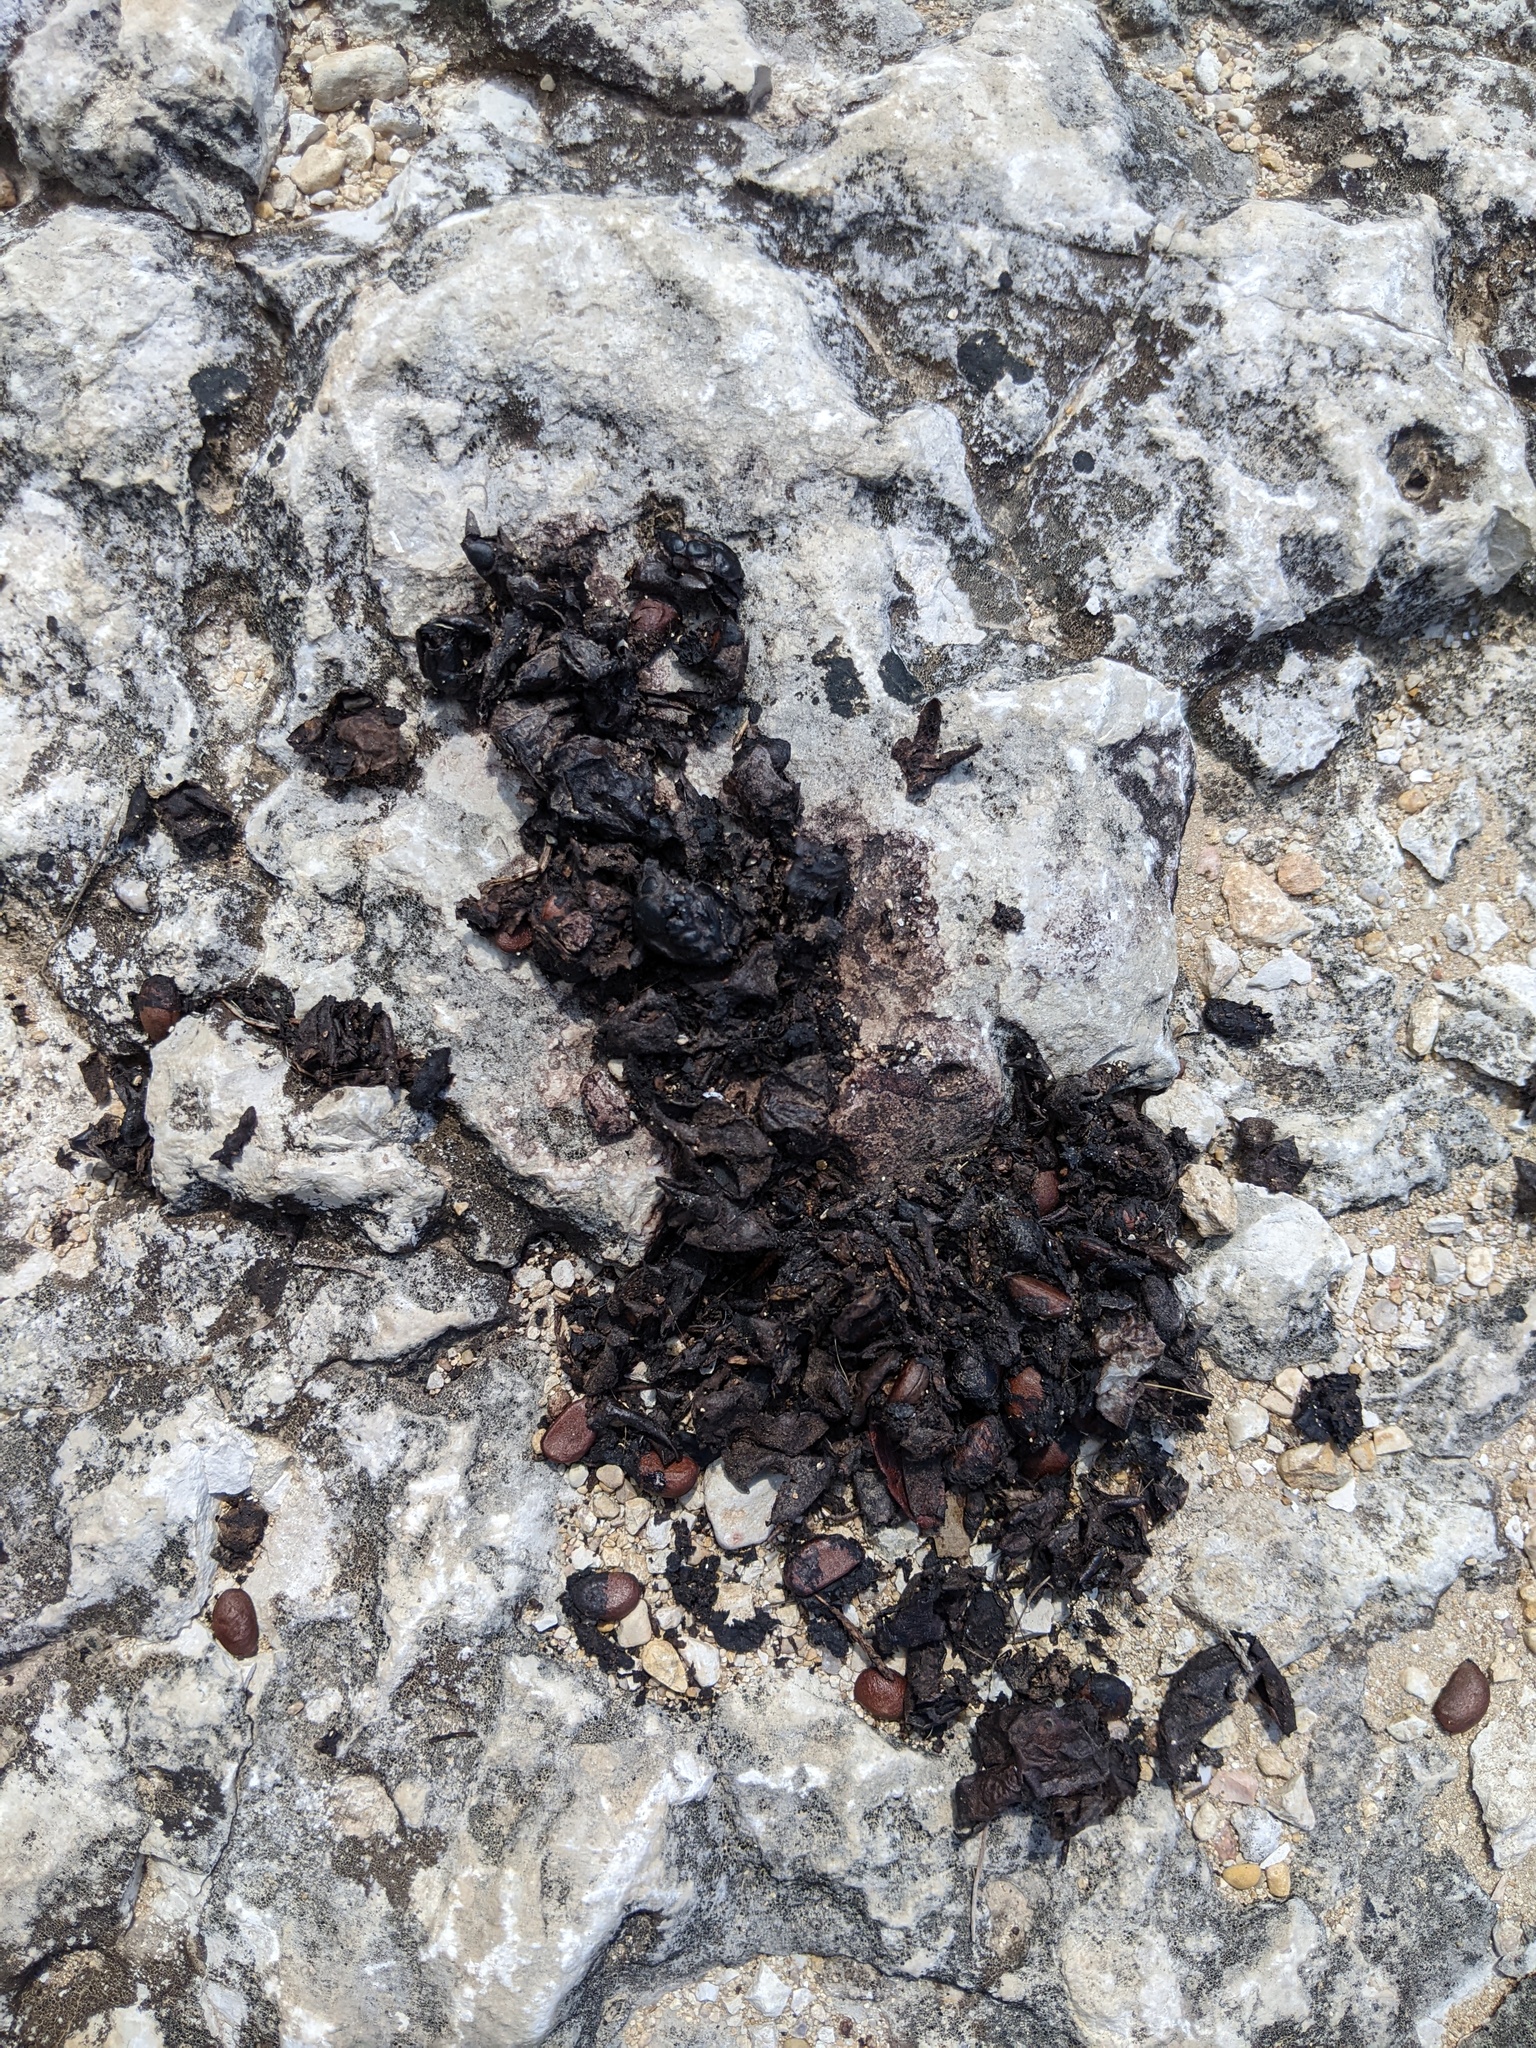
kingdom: Plantae
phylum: Tracheophyta
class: Magnoliopsida
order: Ericales
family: Ebenaceae
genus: Diospyros
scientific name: Diospyros texana
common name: Texas persimmon
